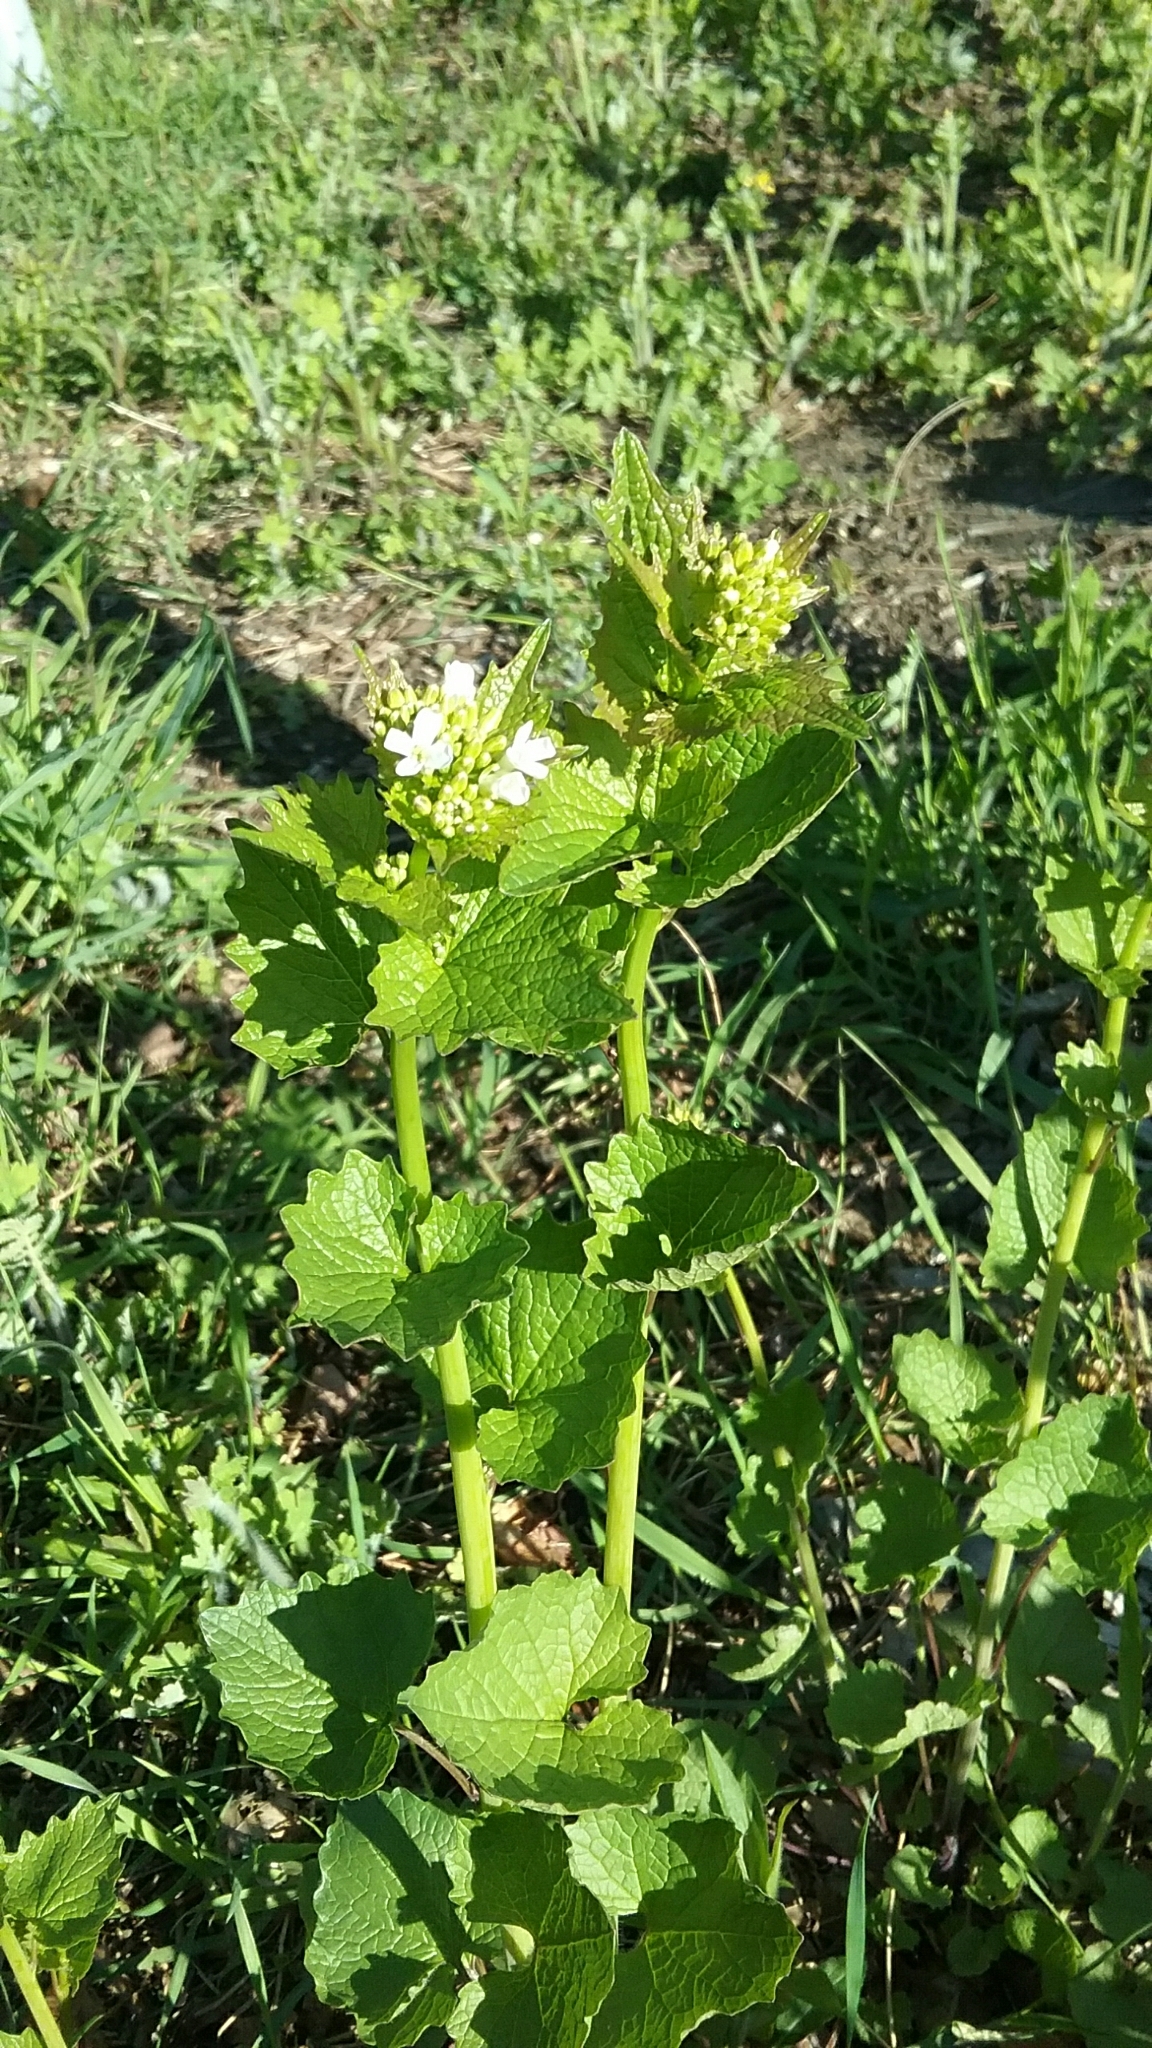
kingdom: Plantae
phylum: Tracheophyta
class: Magnoliopsida
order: Brassicales
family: Brassicaceae
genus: Alliaria
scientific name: Alliaria petiolata
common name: Garlic mustard
